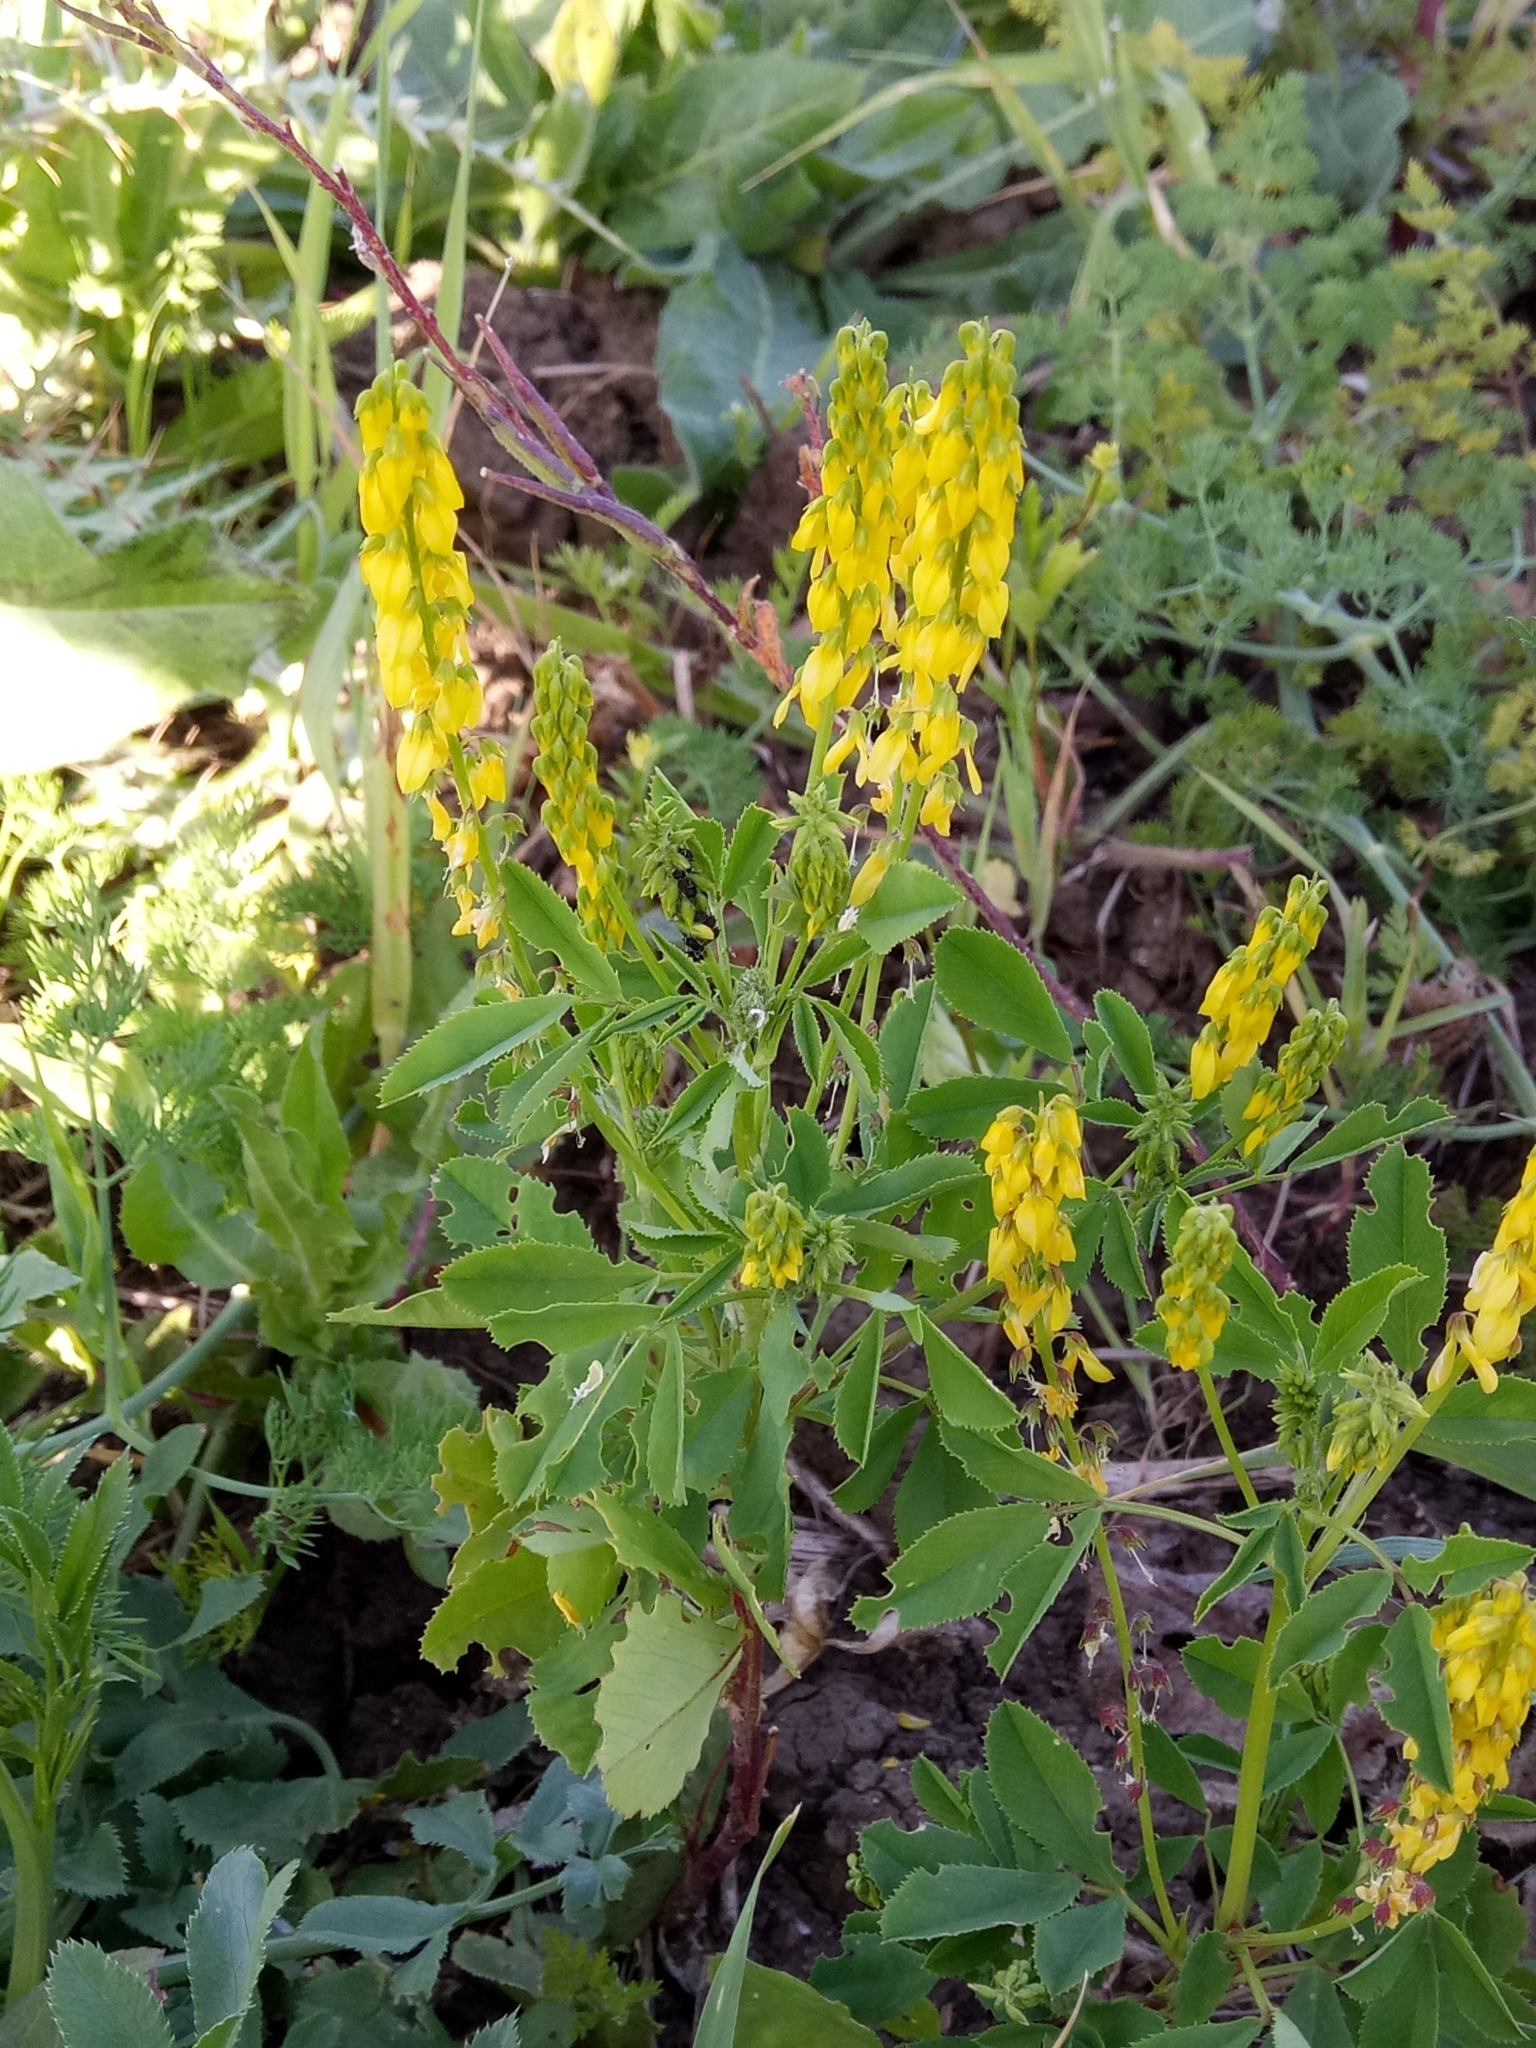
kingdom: Plantae
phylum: Tracheophyta
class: Magnoliopsida
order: Fabales
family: Fabaceae
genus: Melilotus
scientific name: Melilotus segetalis
